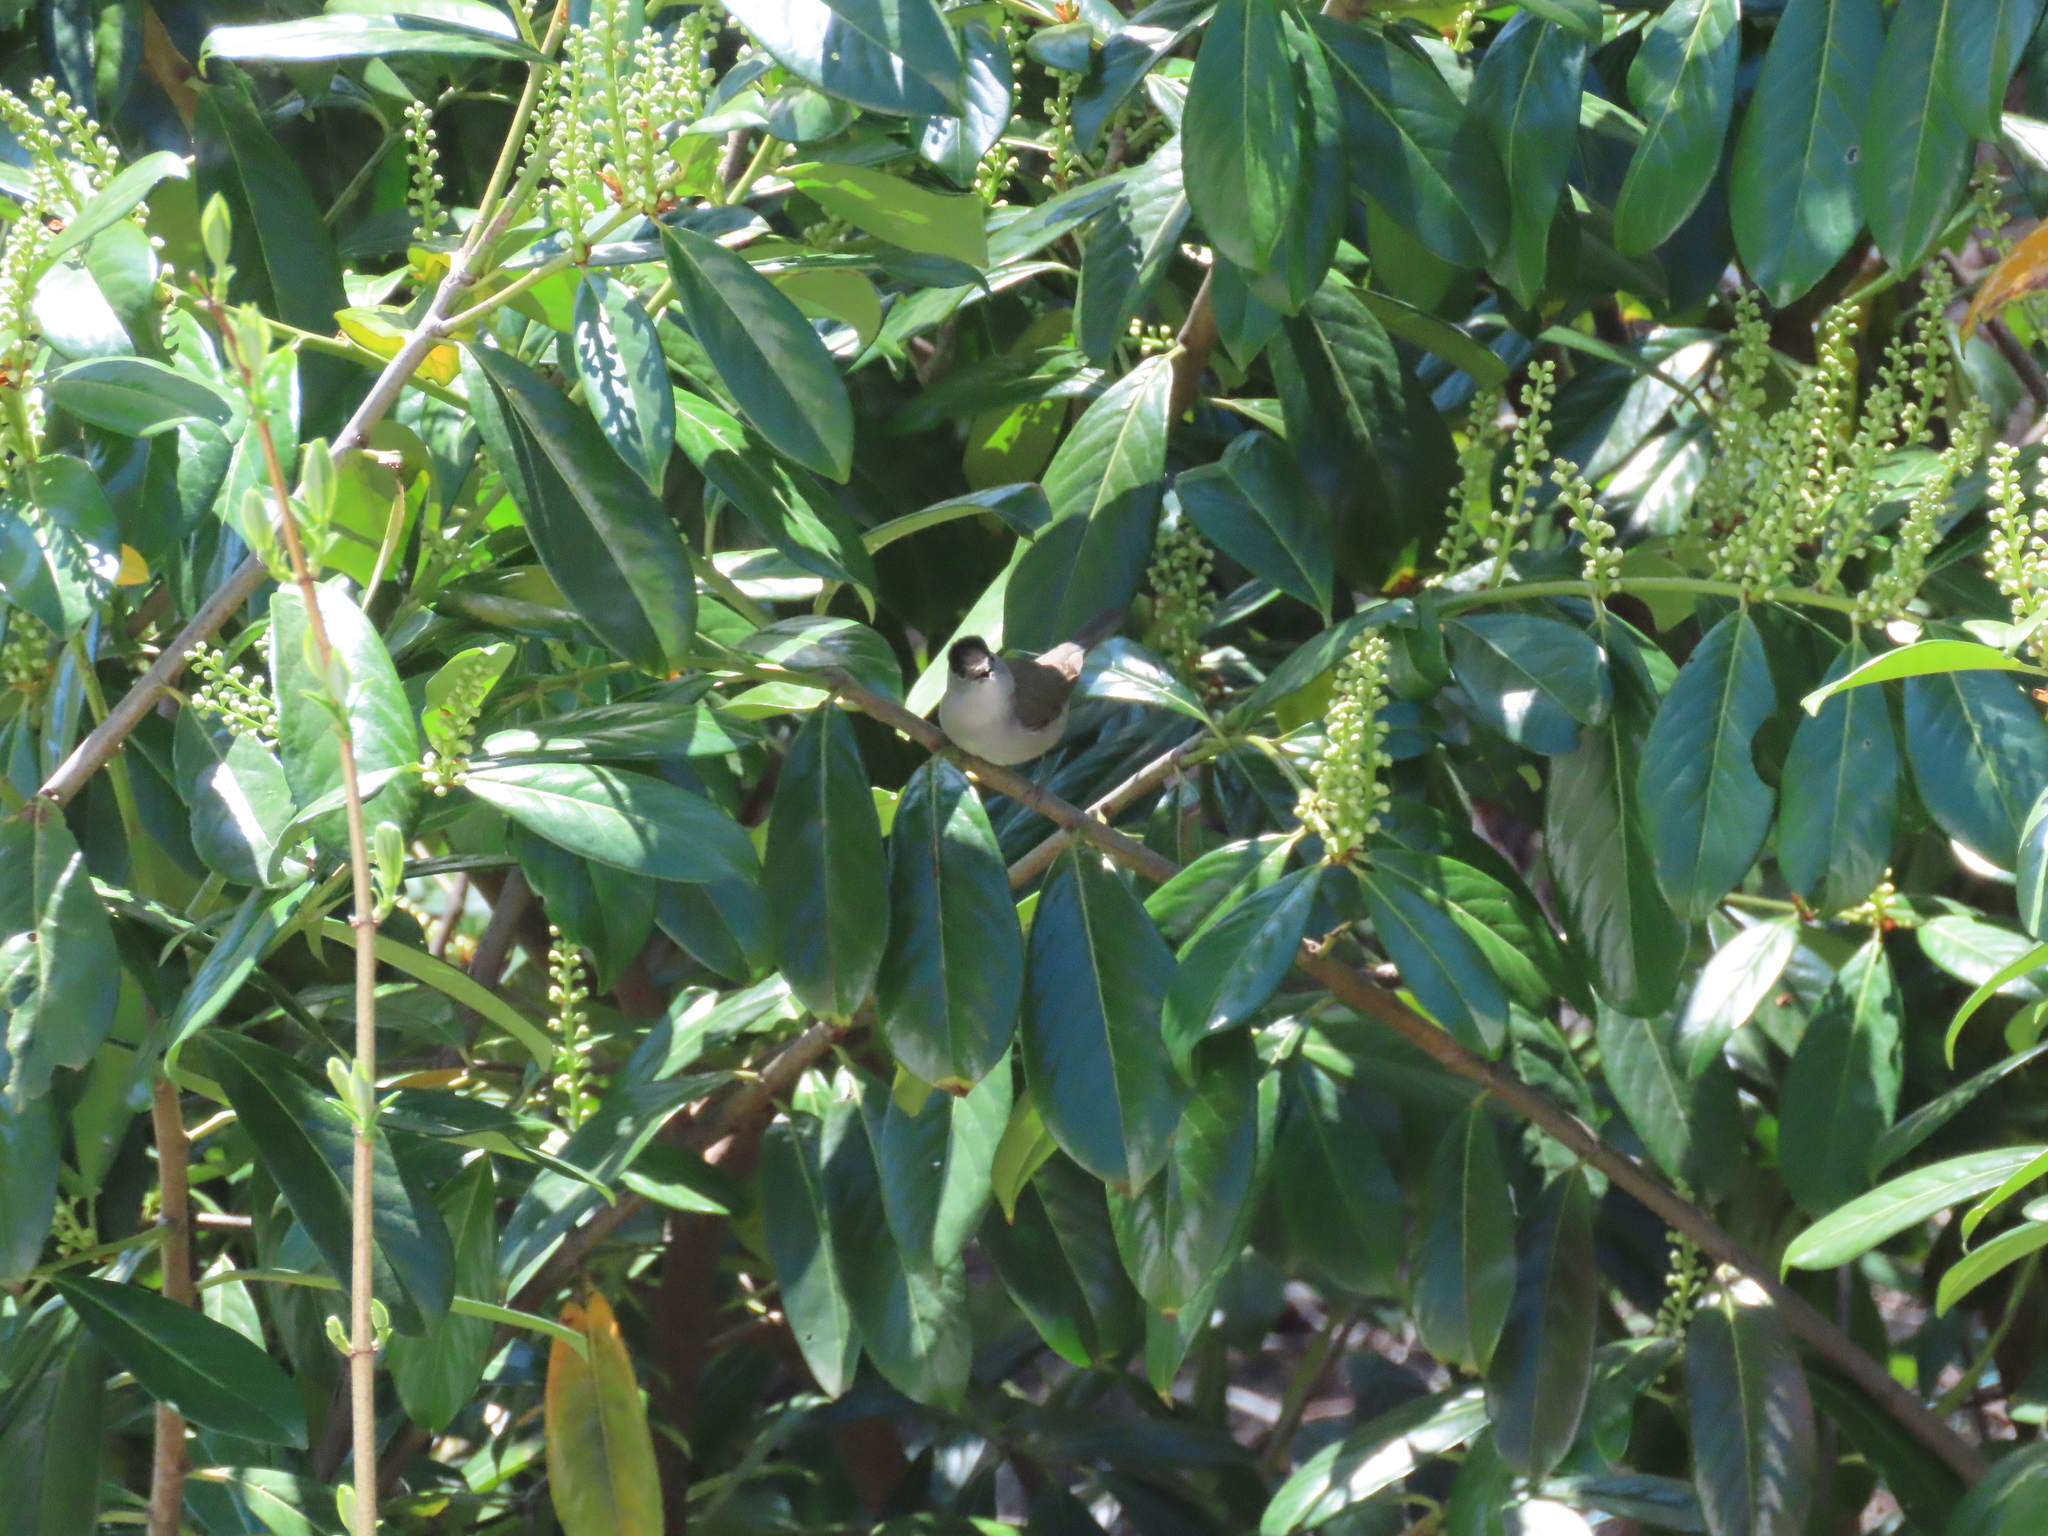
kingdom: Animalia
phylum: Chordata
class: Aves
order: Passeriformes
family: Sylviidae
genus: Sylvia
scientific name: Sylvia atricapilla
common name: Eurasian blackcap
